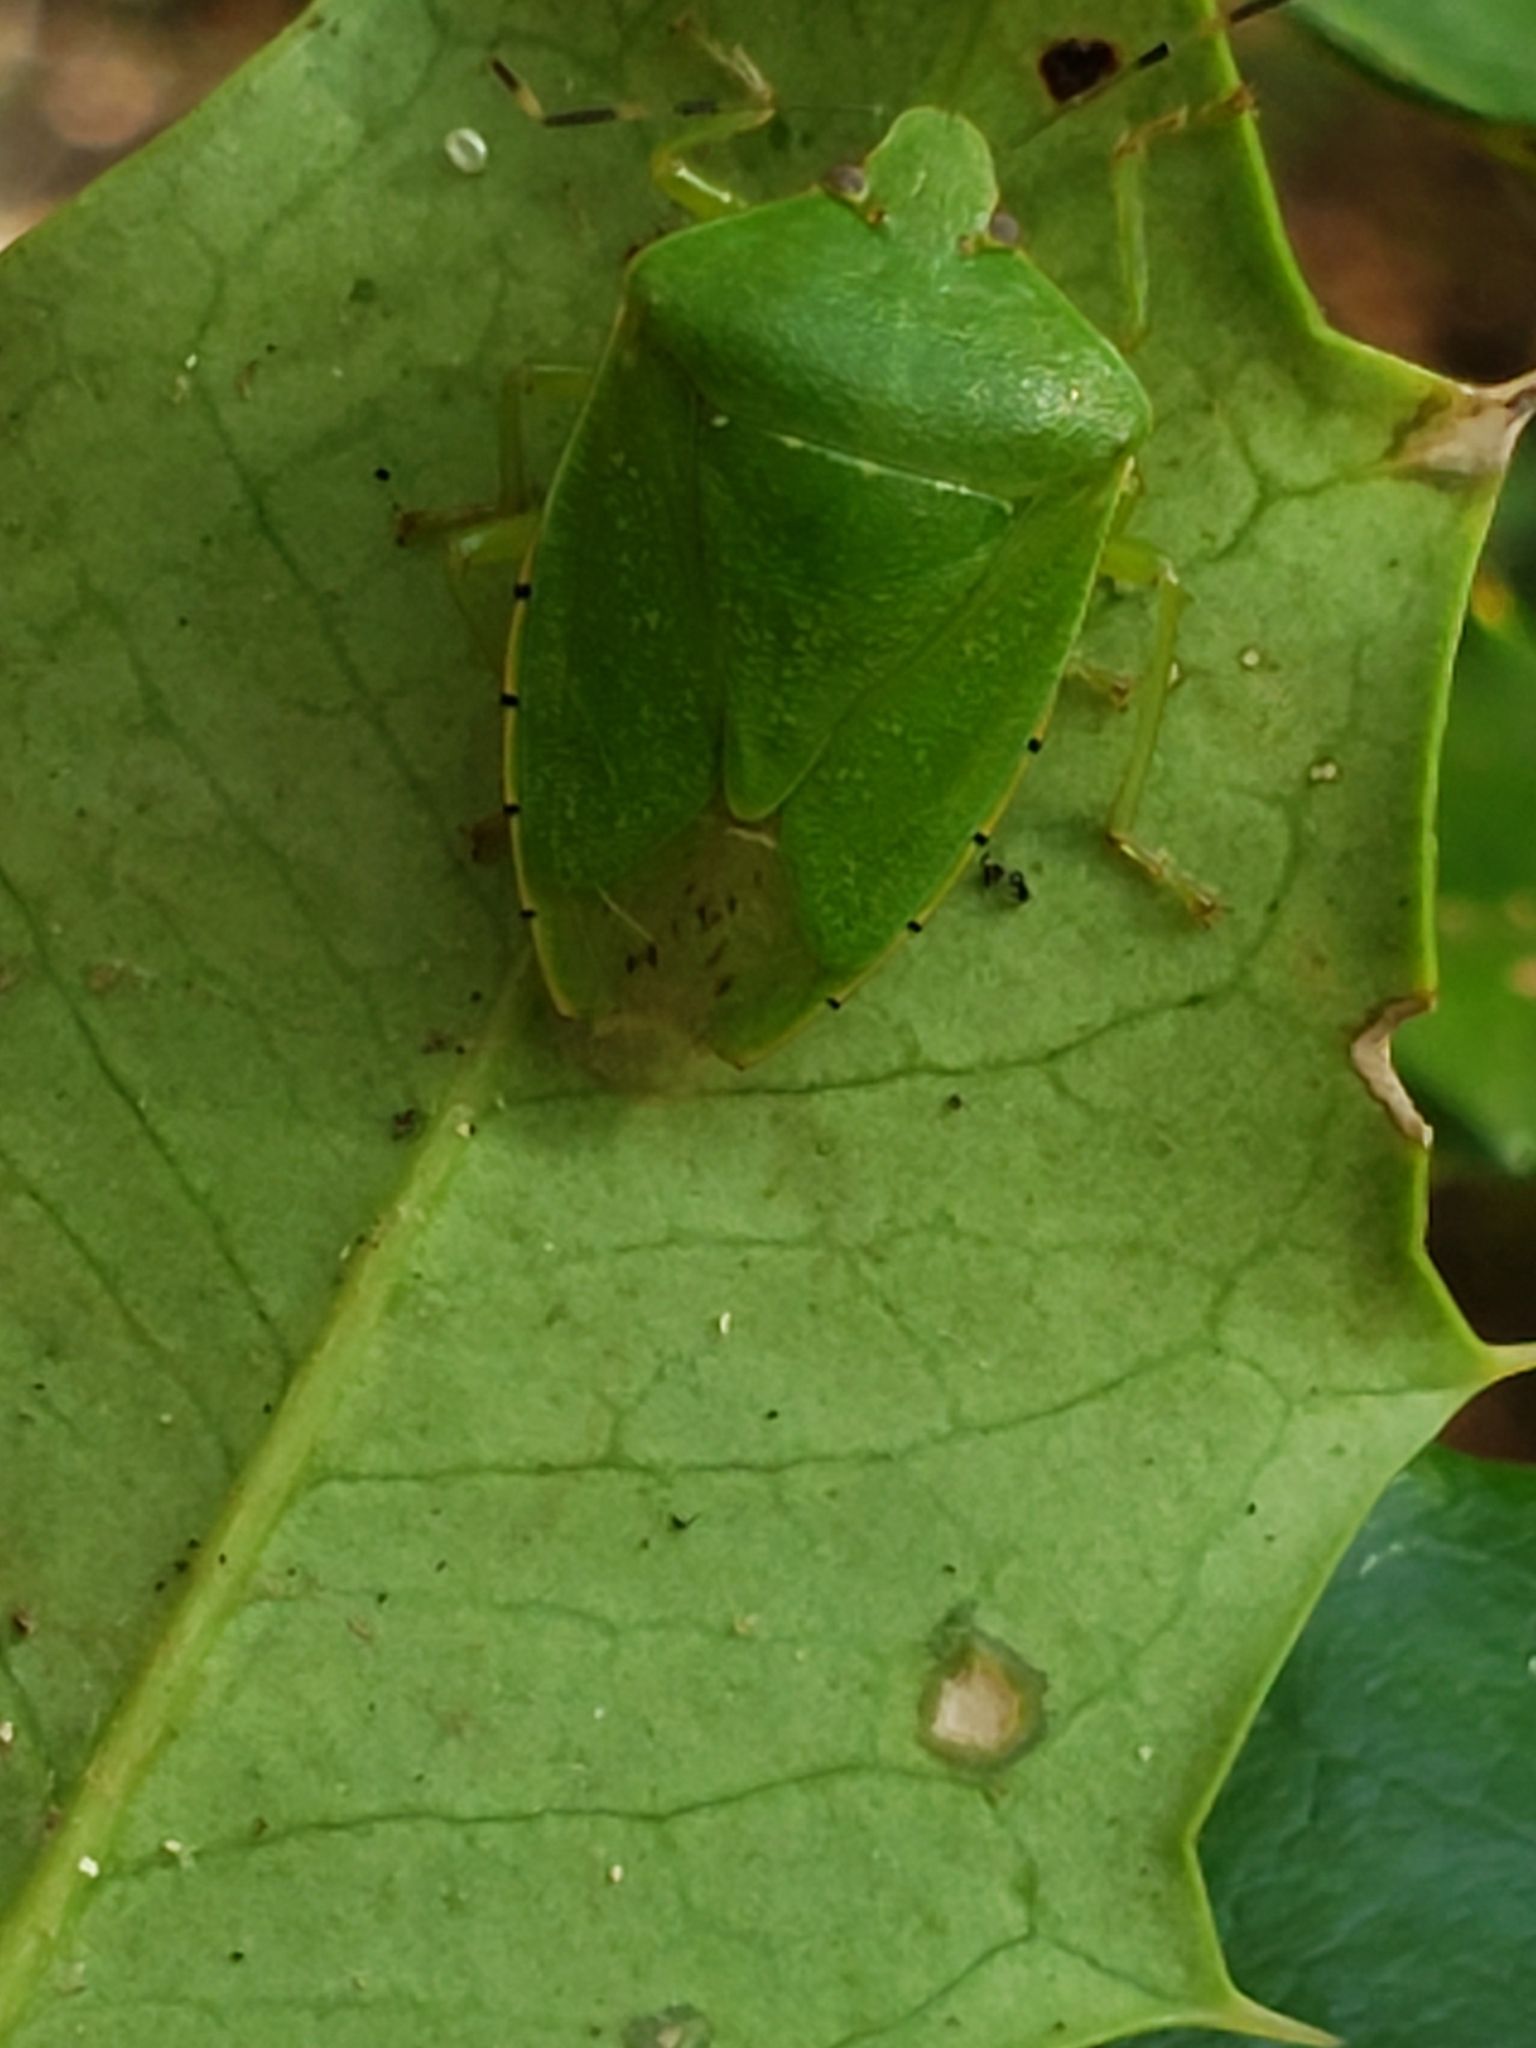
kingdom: Animalia
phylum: Arthropoda
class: Insecta
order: Hemiptera
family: Pentatomidae
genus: Chinavia
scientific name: Chinavia hilaris
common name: Green stink bug
